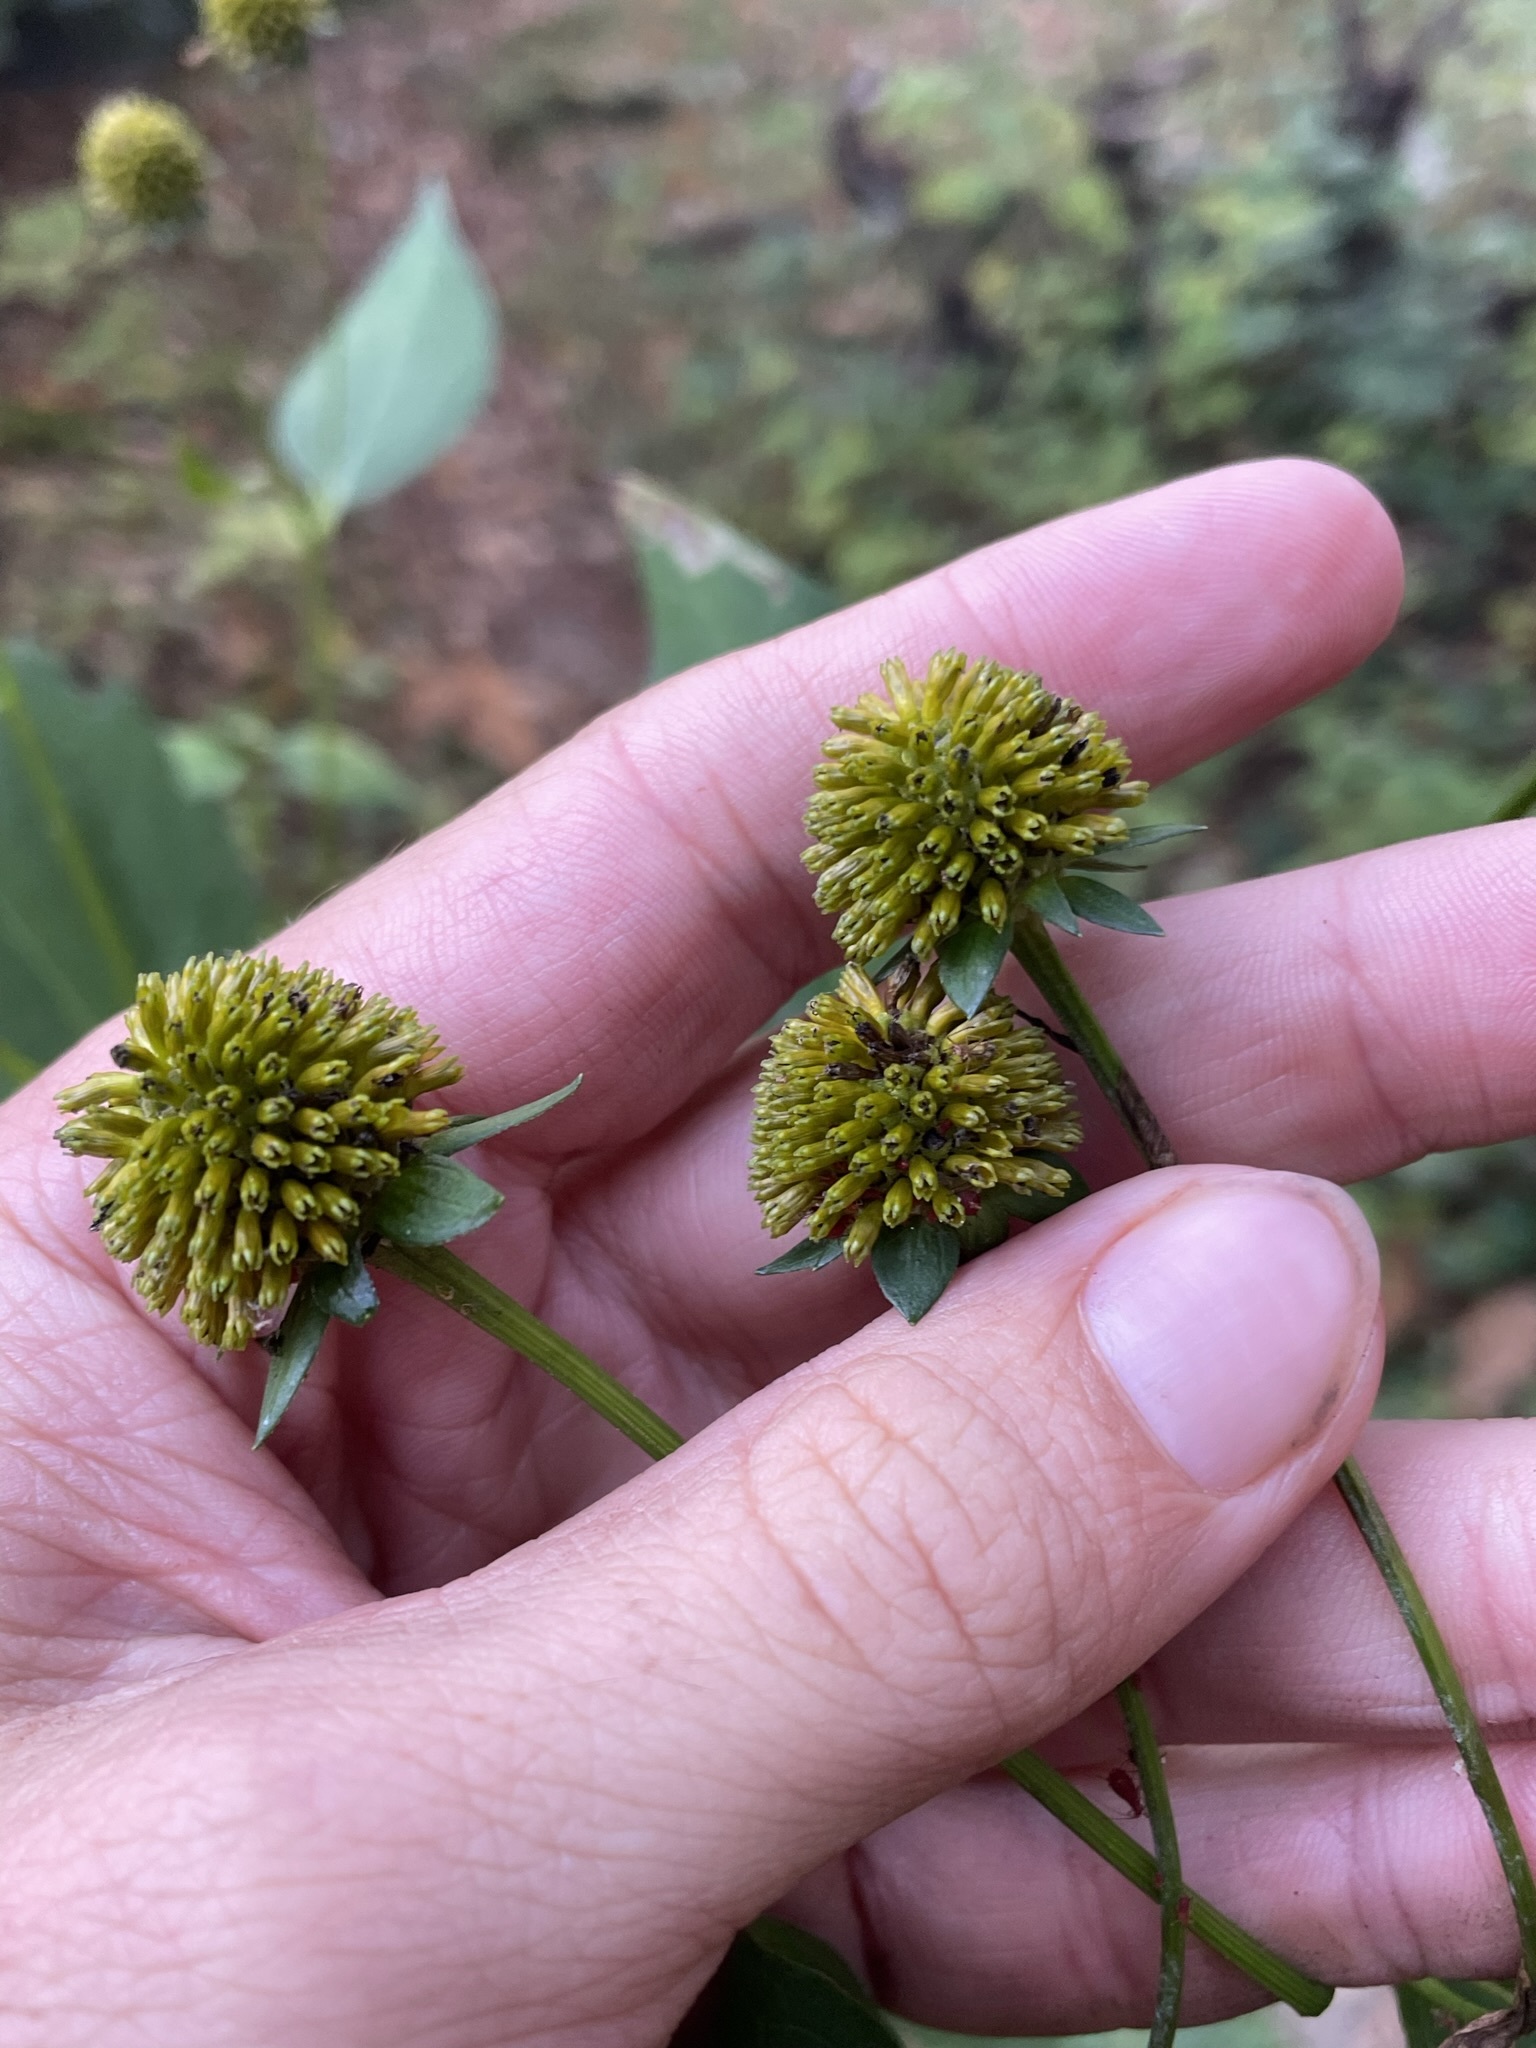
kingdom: Plantae
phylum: Tracheophyta
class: Magnoliopsida
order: Asterales
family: Asteraceae
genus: Rudbeckia
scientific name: Rudbeckia laciniata
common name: Coneflower
